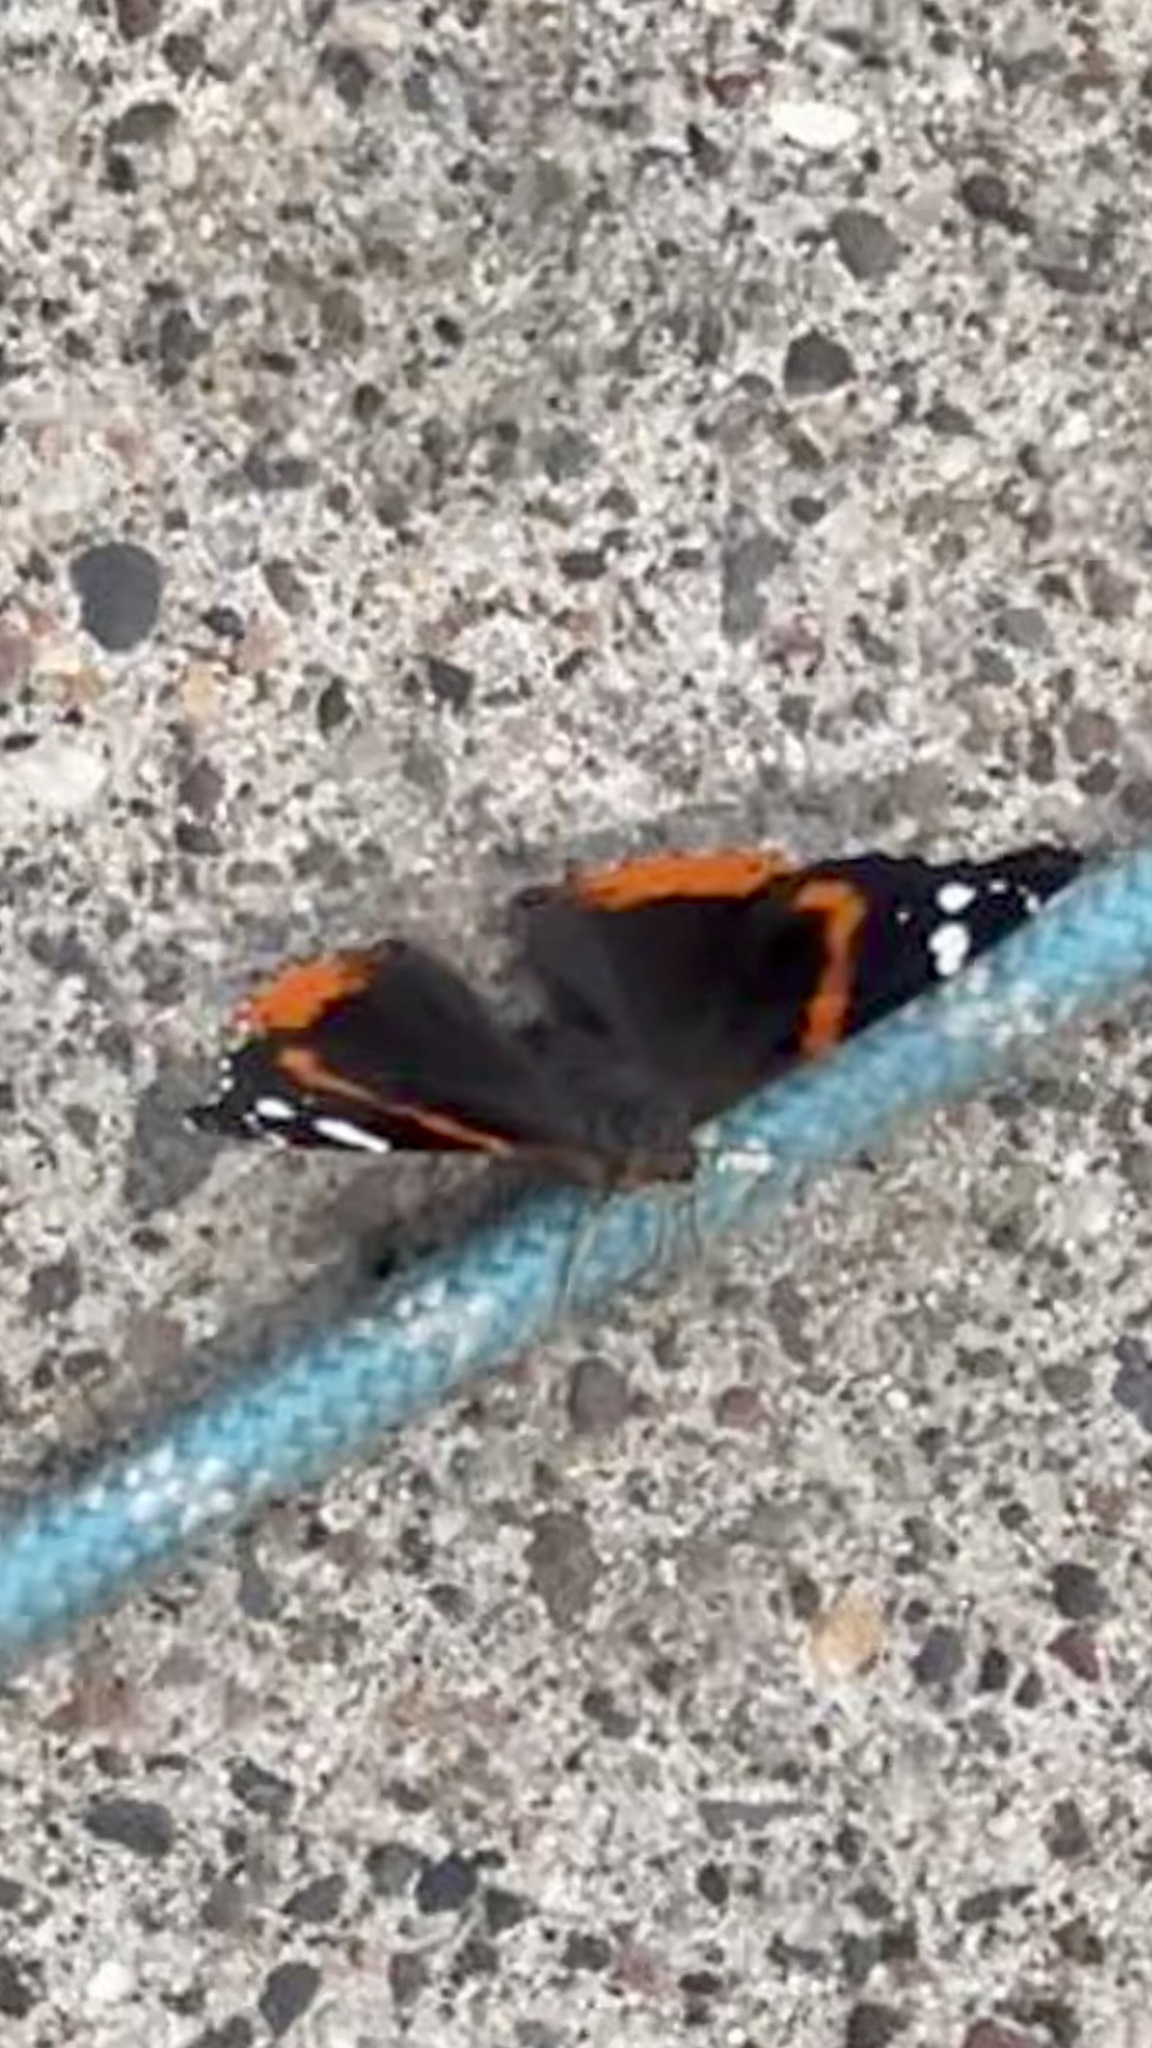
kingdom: Animalia
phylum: Arthropoda
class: Insecta
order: Lepidoptera
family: Nymphalidae
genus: Vanessa
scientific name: Vanessa atalanta
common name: Red admiral
